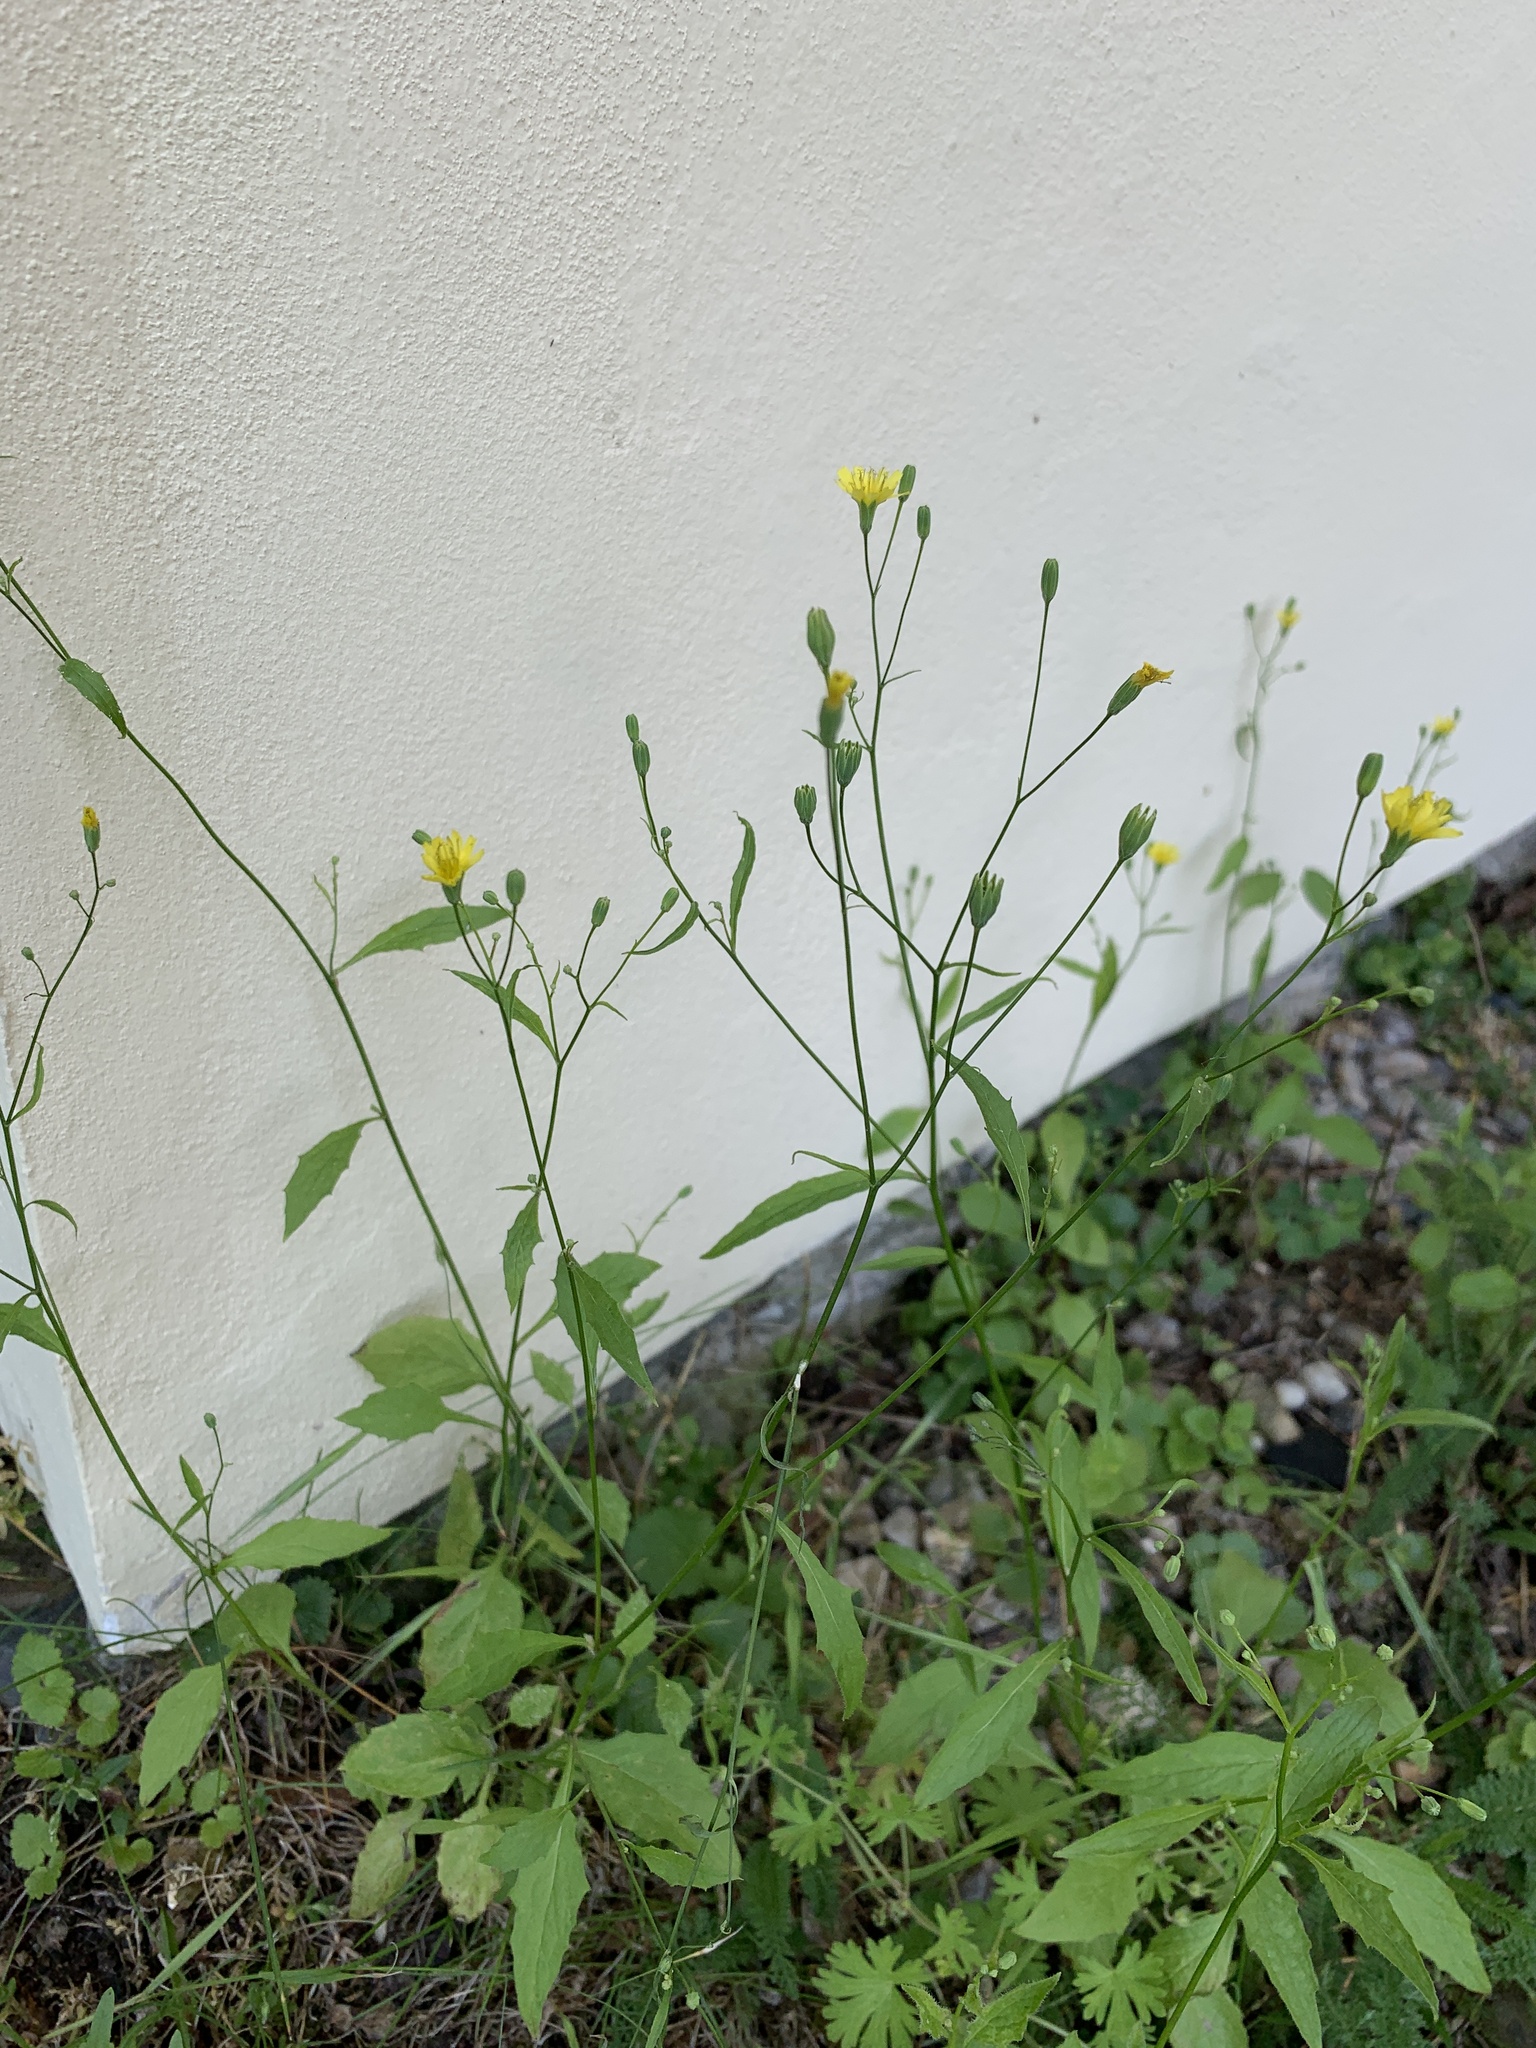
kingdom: Plantae
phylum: Tracheophyta
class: Magnoliopsida
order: Asterales
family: Asteraceae
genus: Lapsana
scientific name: Lapsana communis
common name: Nipplewort
